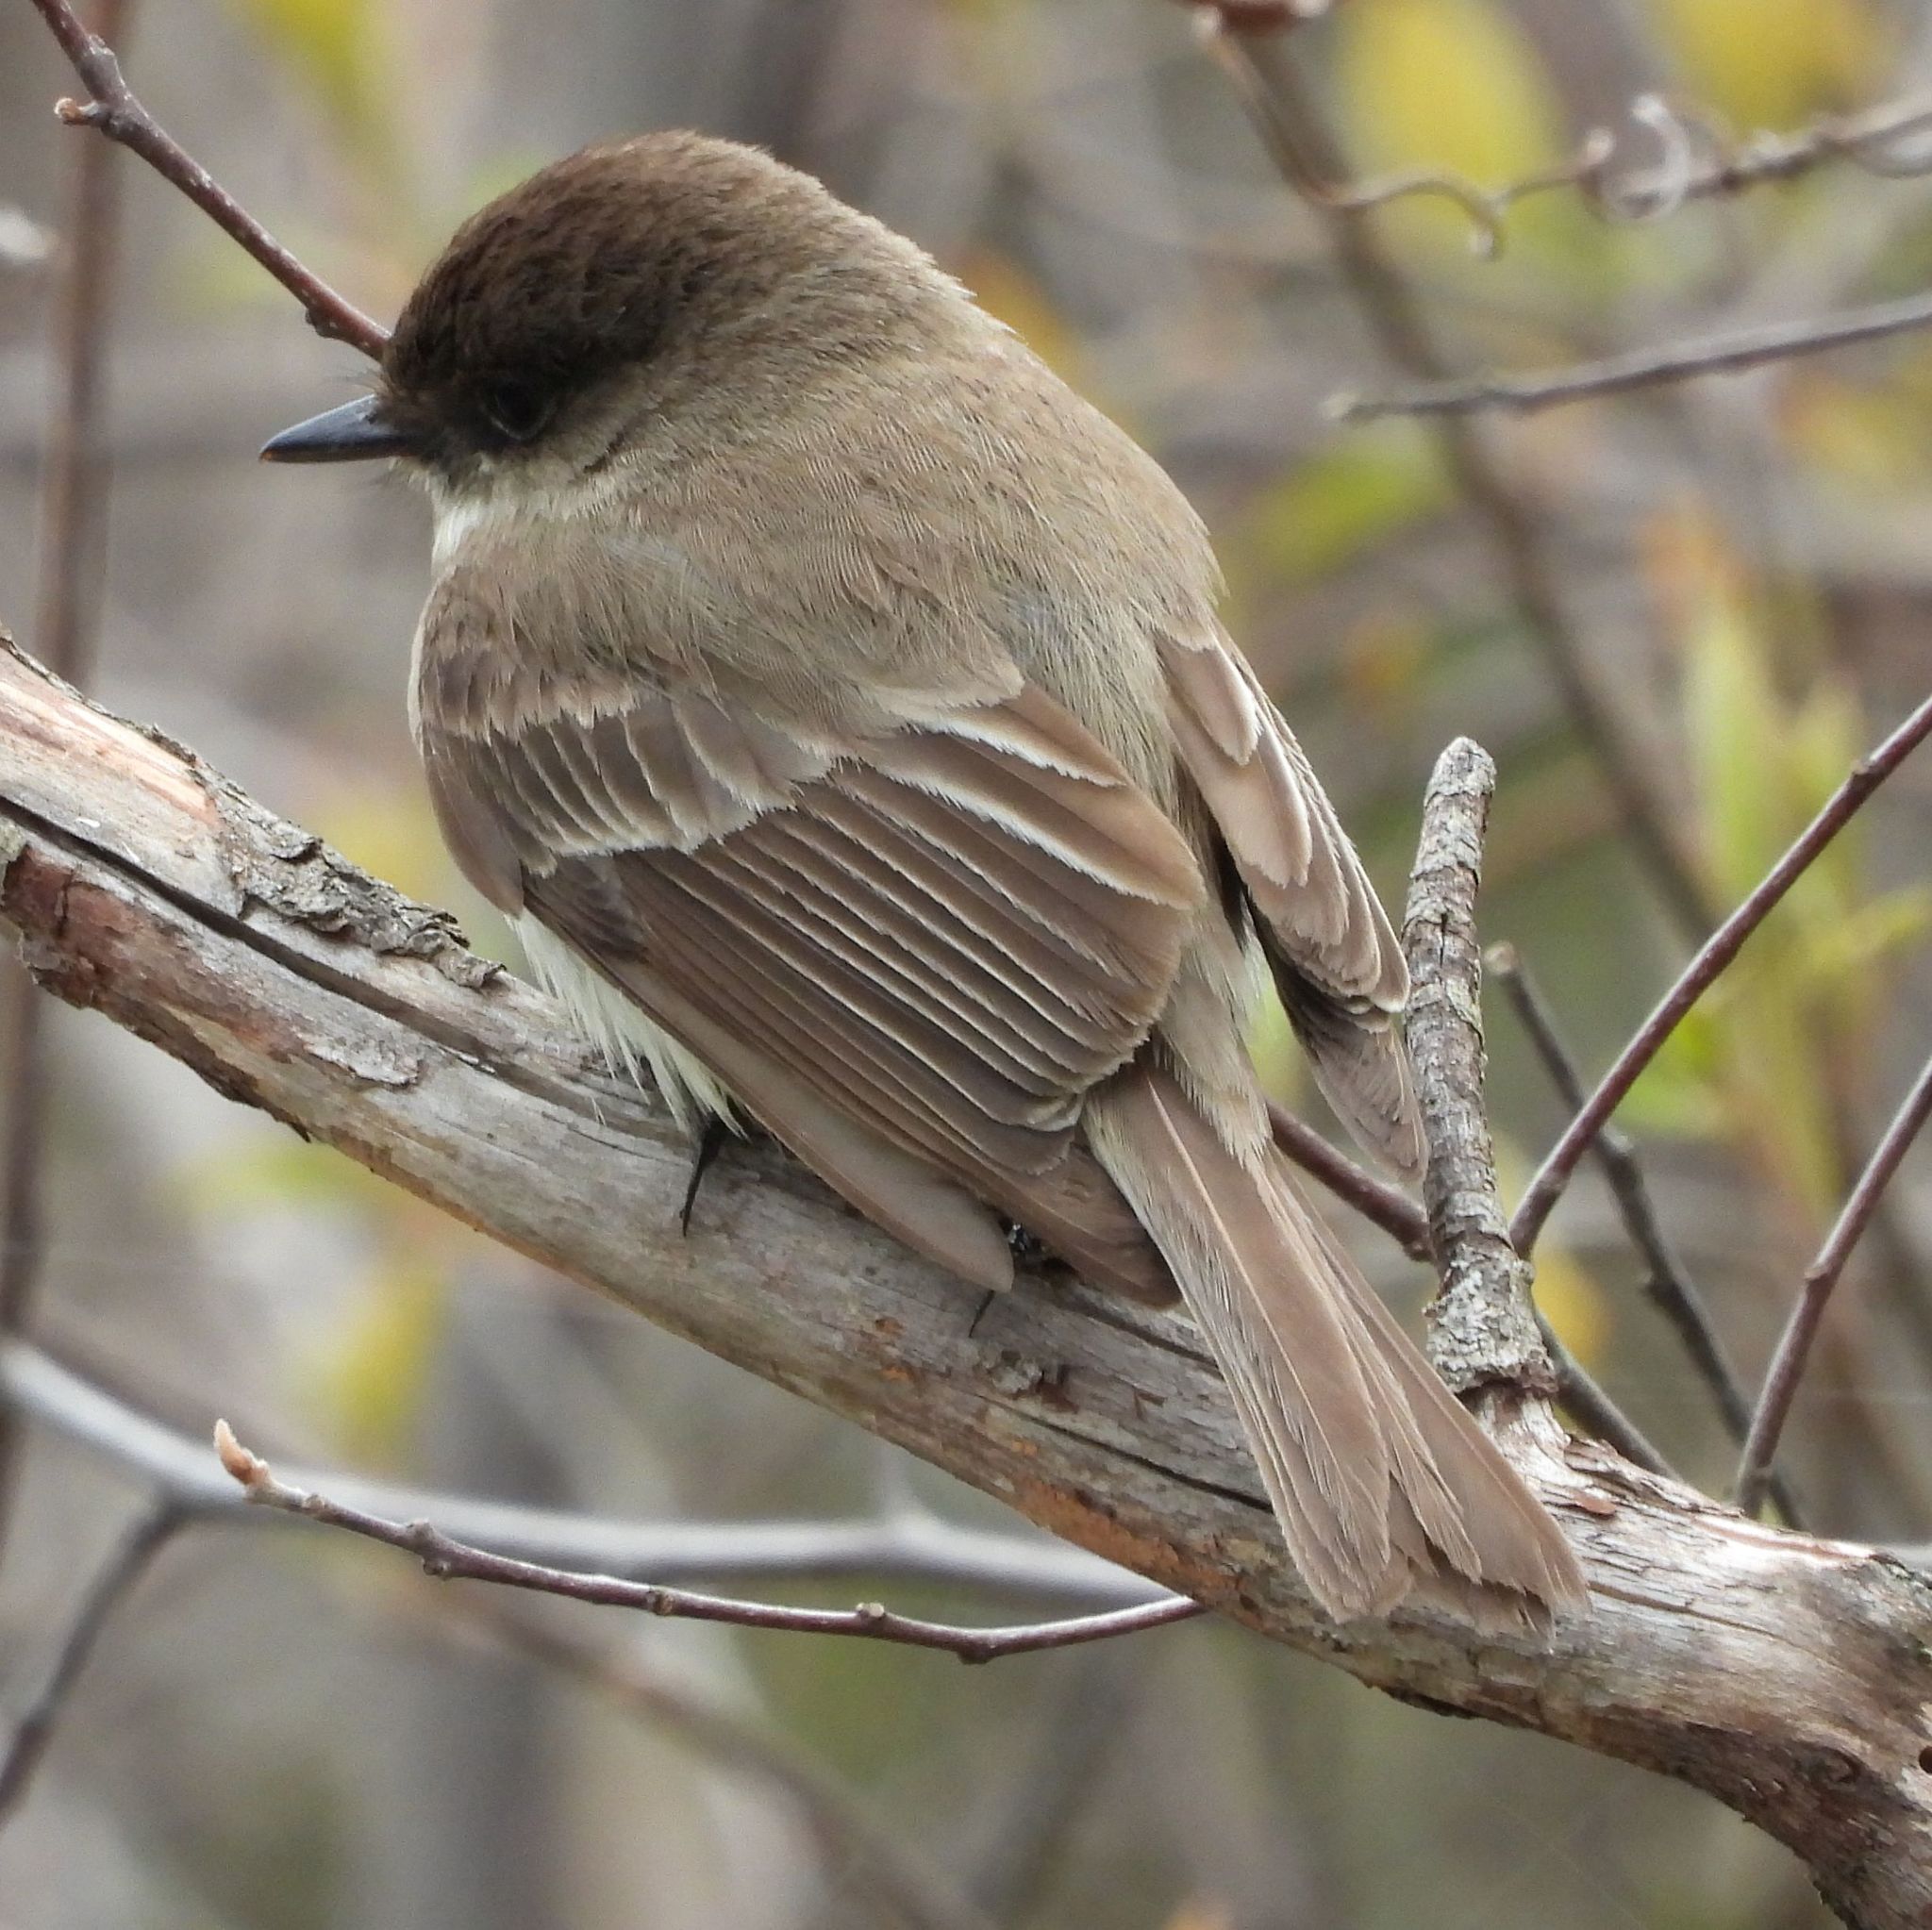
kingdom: Animalia
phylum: Chordata
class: Aves
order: Passeriformes
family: Tyrannidae
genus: Sayornis
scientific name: Sayornis phoebe
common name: Eastern phoebe
